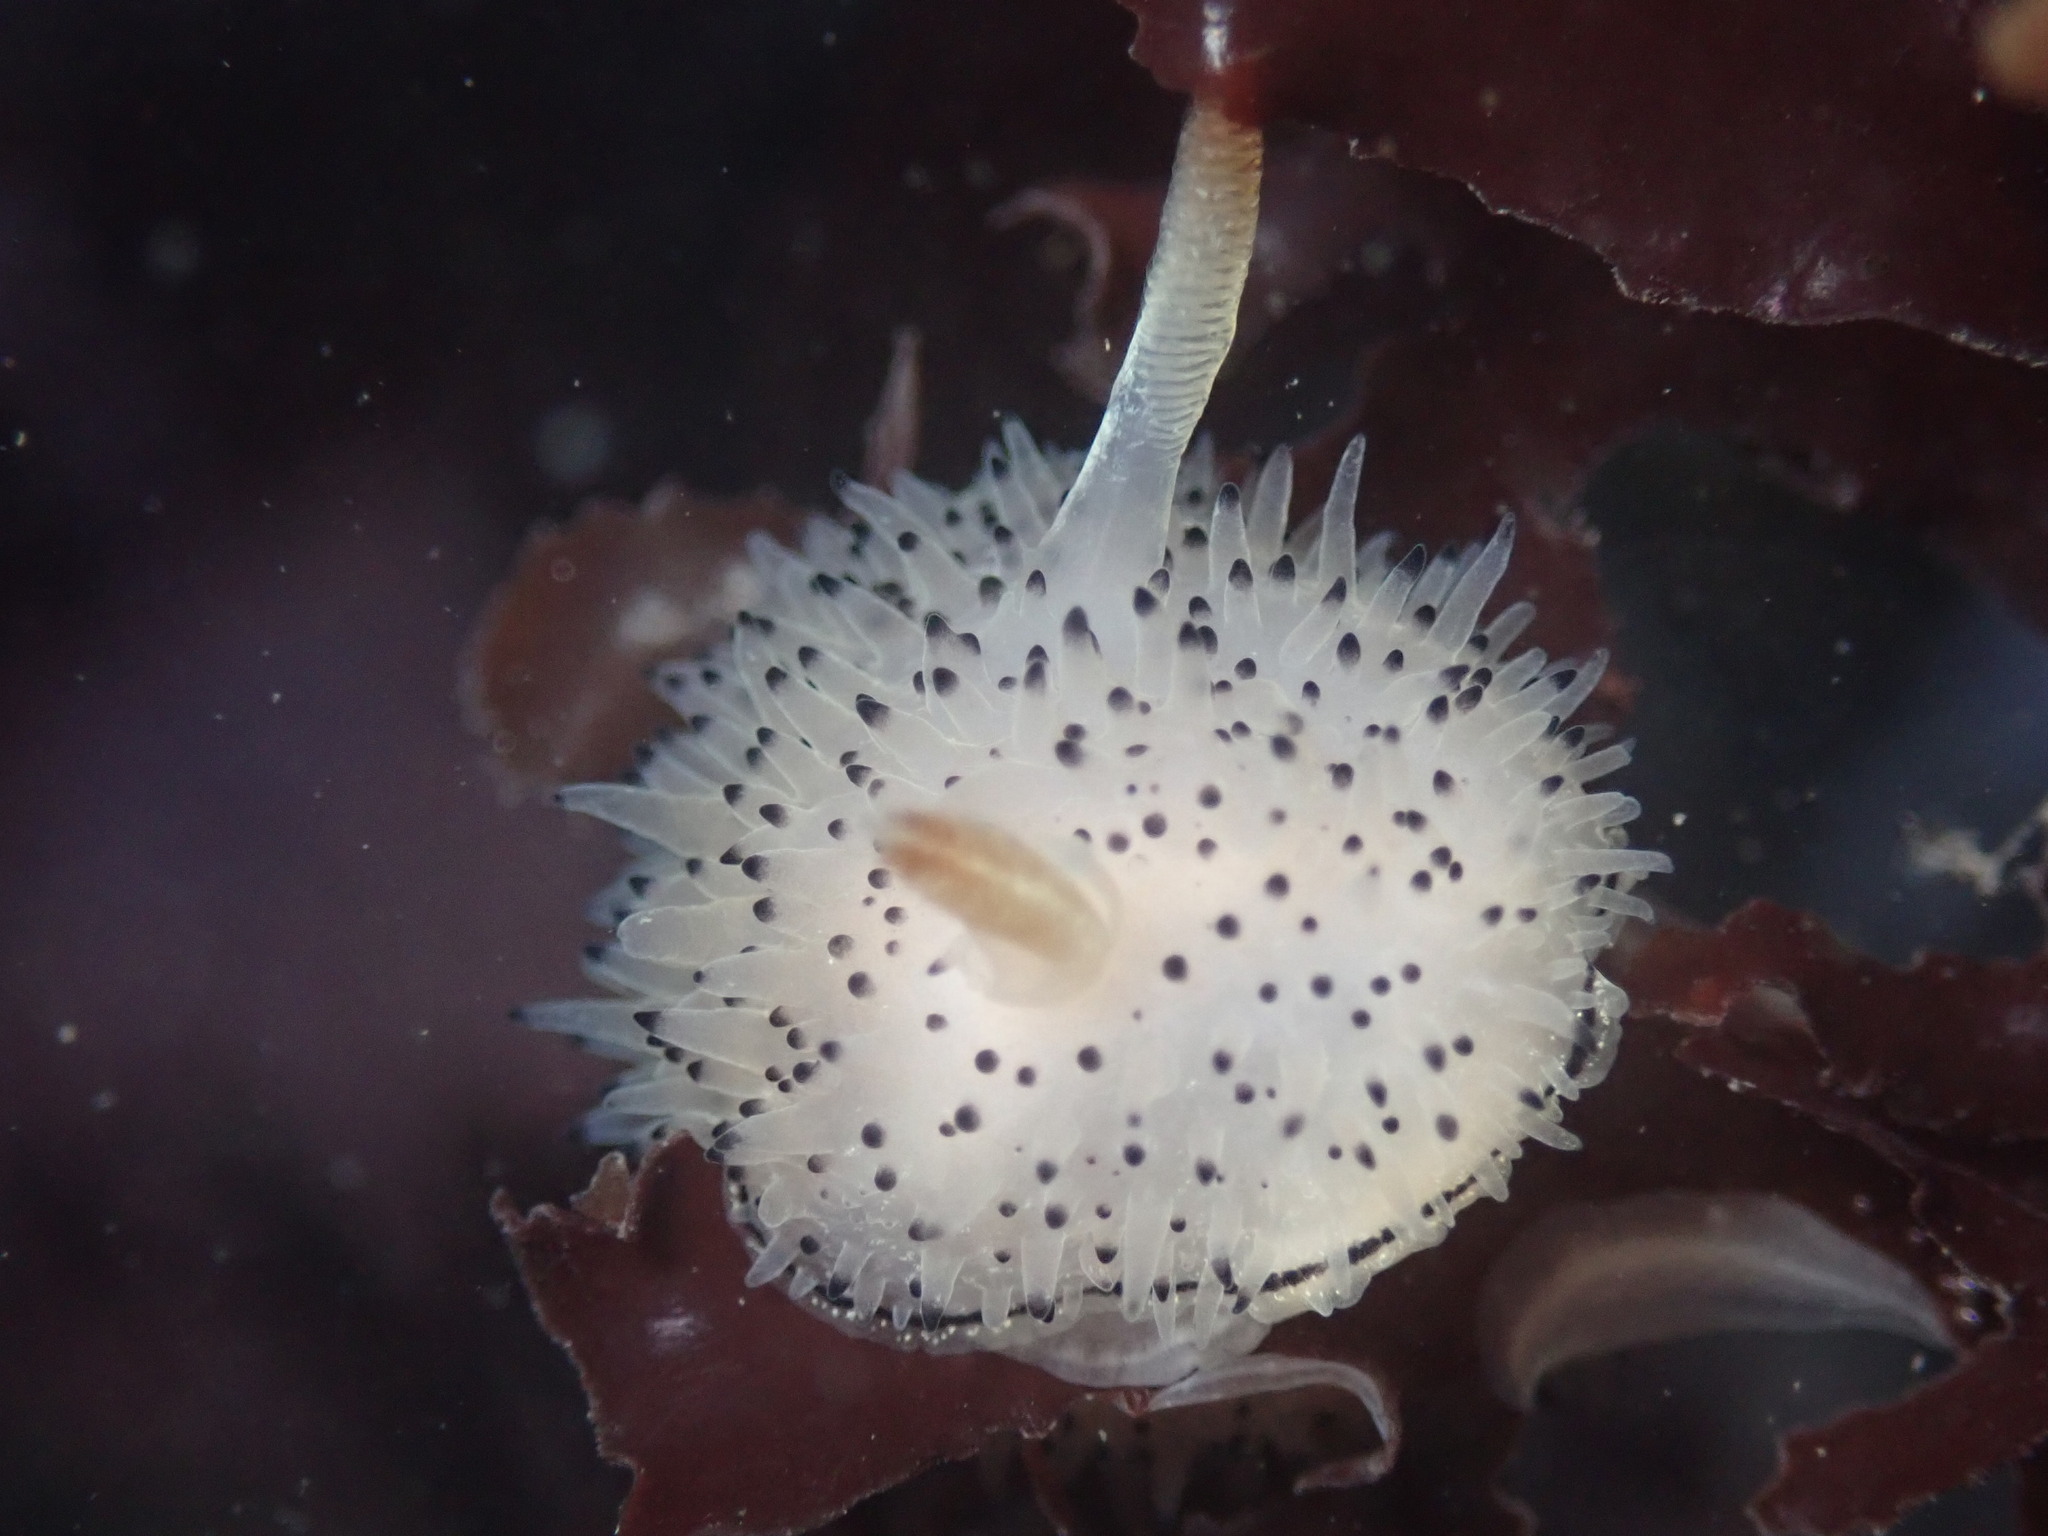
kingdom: Animalia
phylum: Mollusca
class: Gastropoda
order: Nudibranchia
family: Onchidorididae
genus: Acanthodoris
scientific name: Acanthodoris rhodoceras
